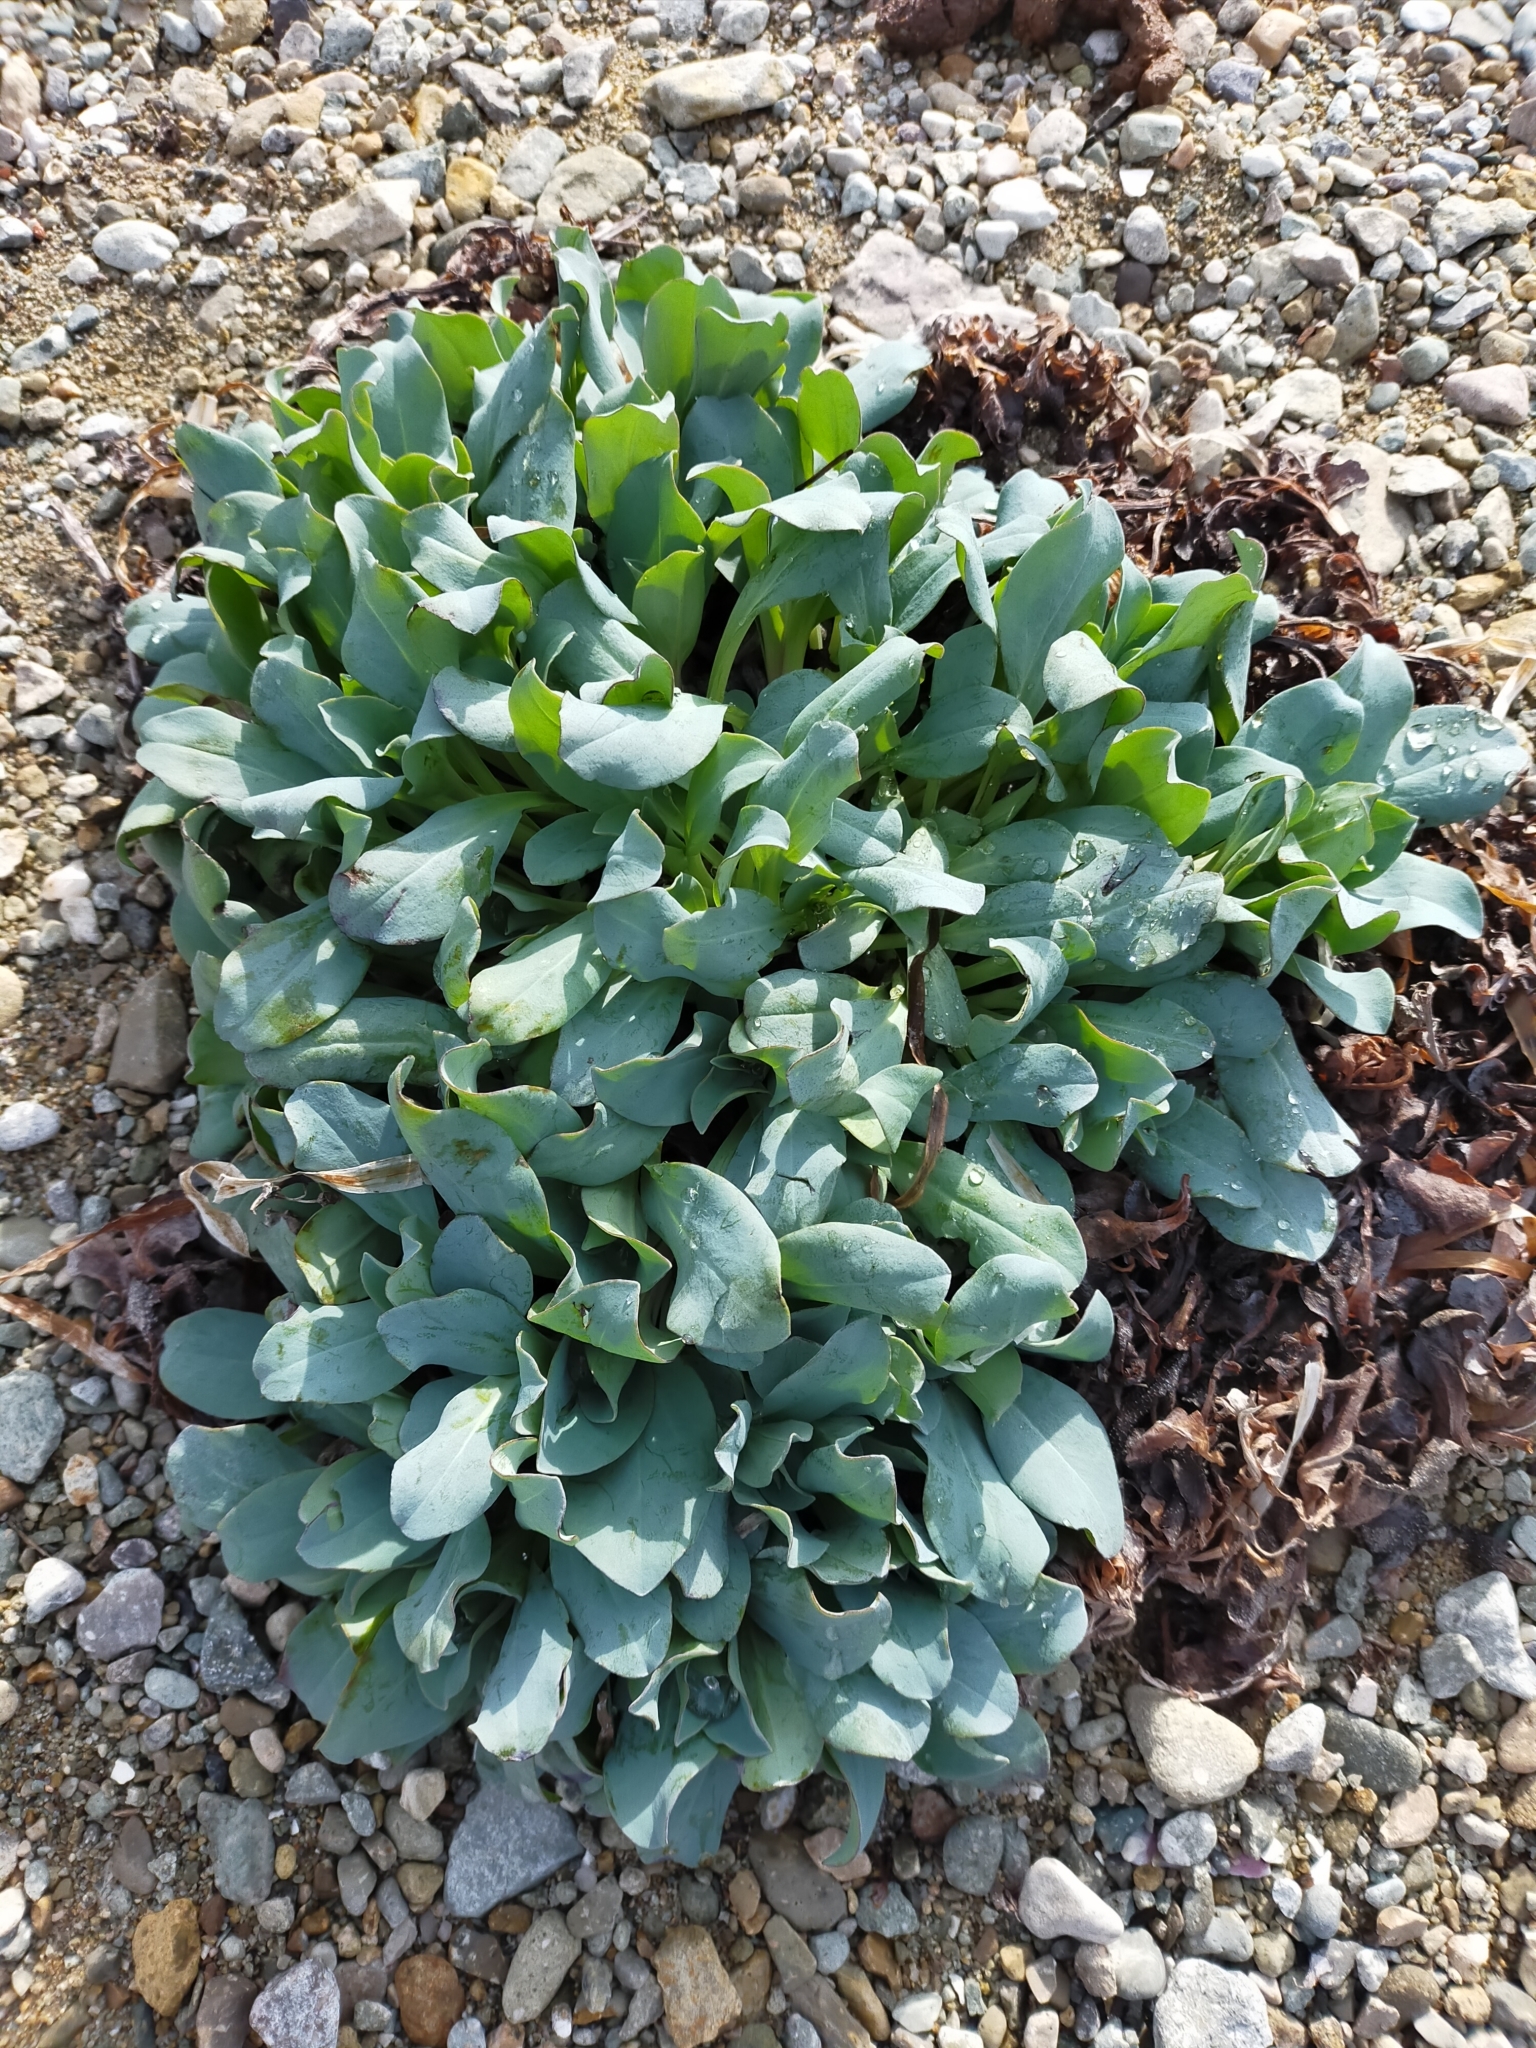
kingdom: Plantae
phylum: Tracheophyta
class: Magnoliopsida
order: Boraginales
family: Boraginaceae
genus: Mertensia
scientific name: Mertensia simplicissima
